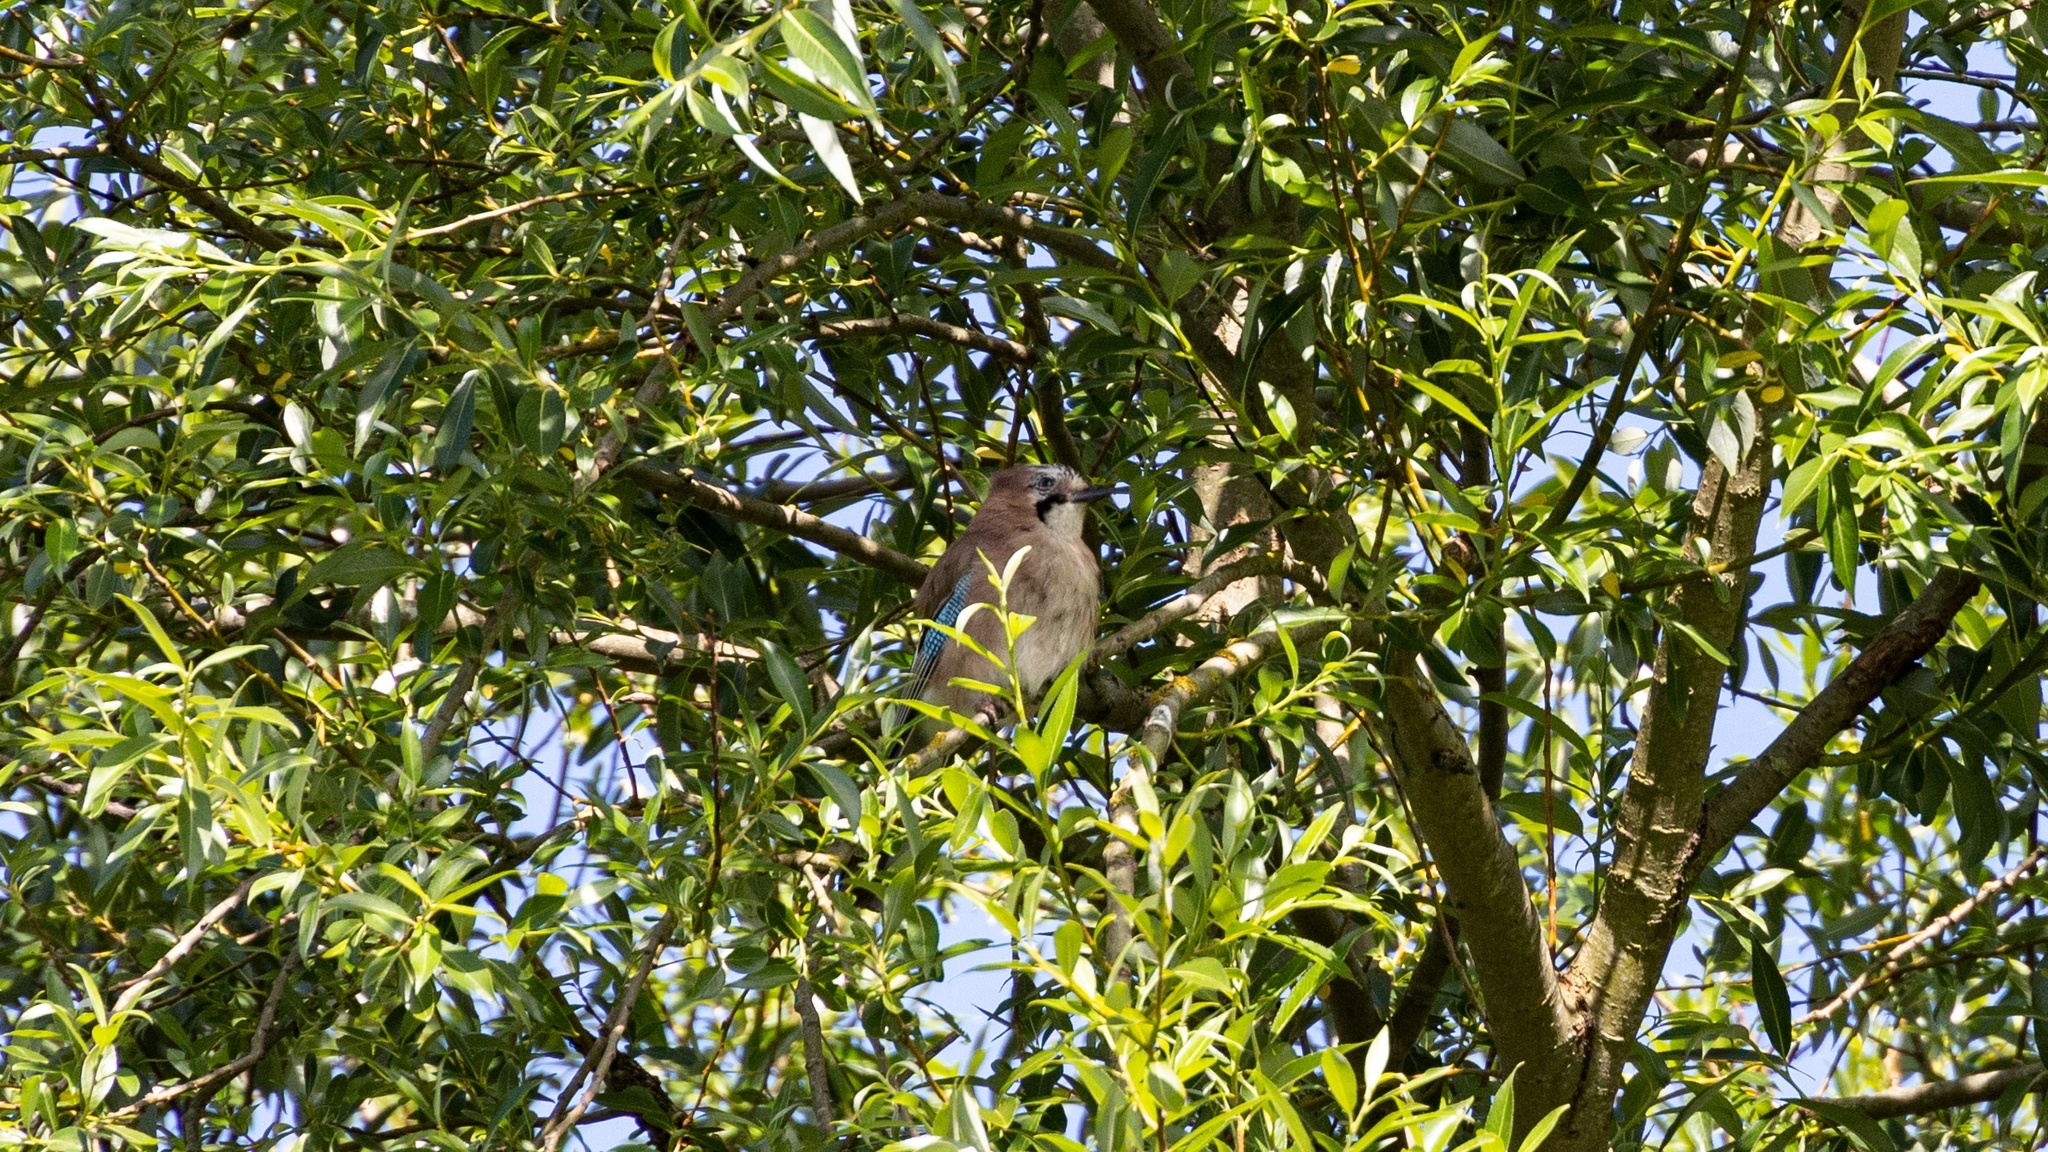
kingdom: Animalia
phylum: Chordata
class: Aves
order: Passeriformes
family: Corvidae
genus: Garrulus
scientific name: Garrulus glandarius
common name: Eurasian jay
